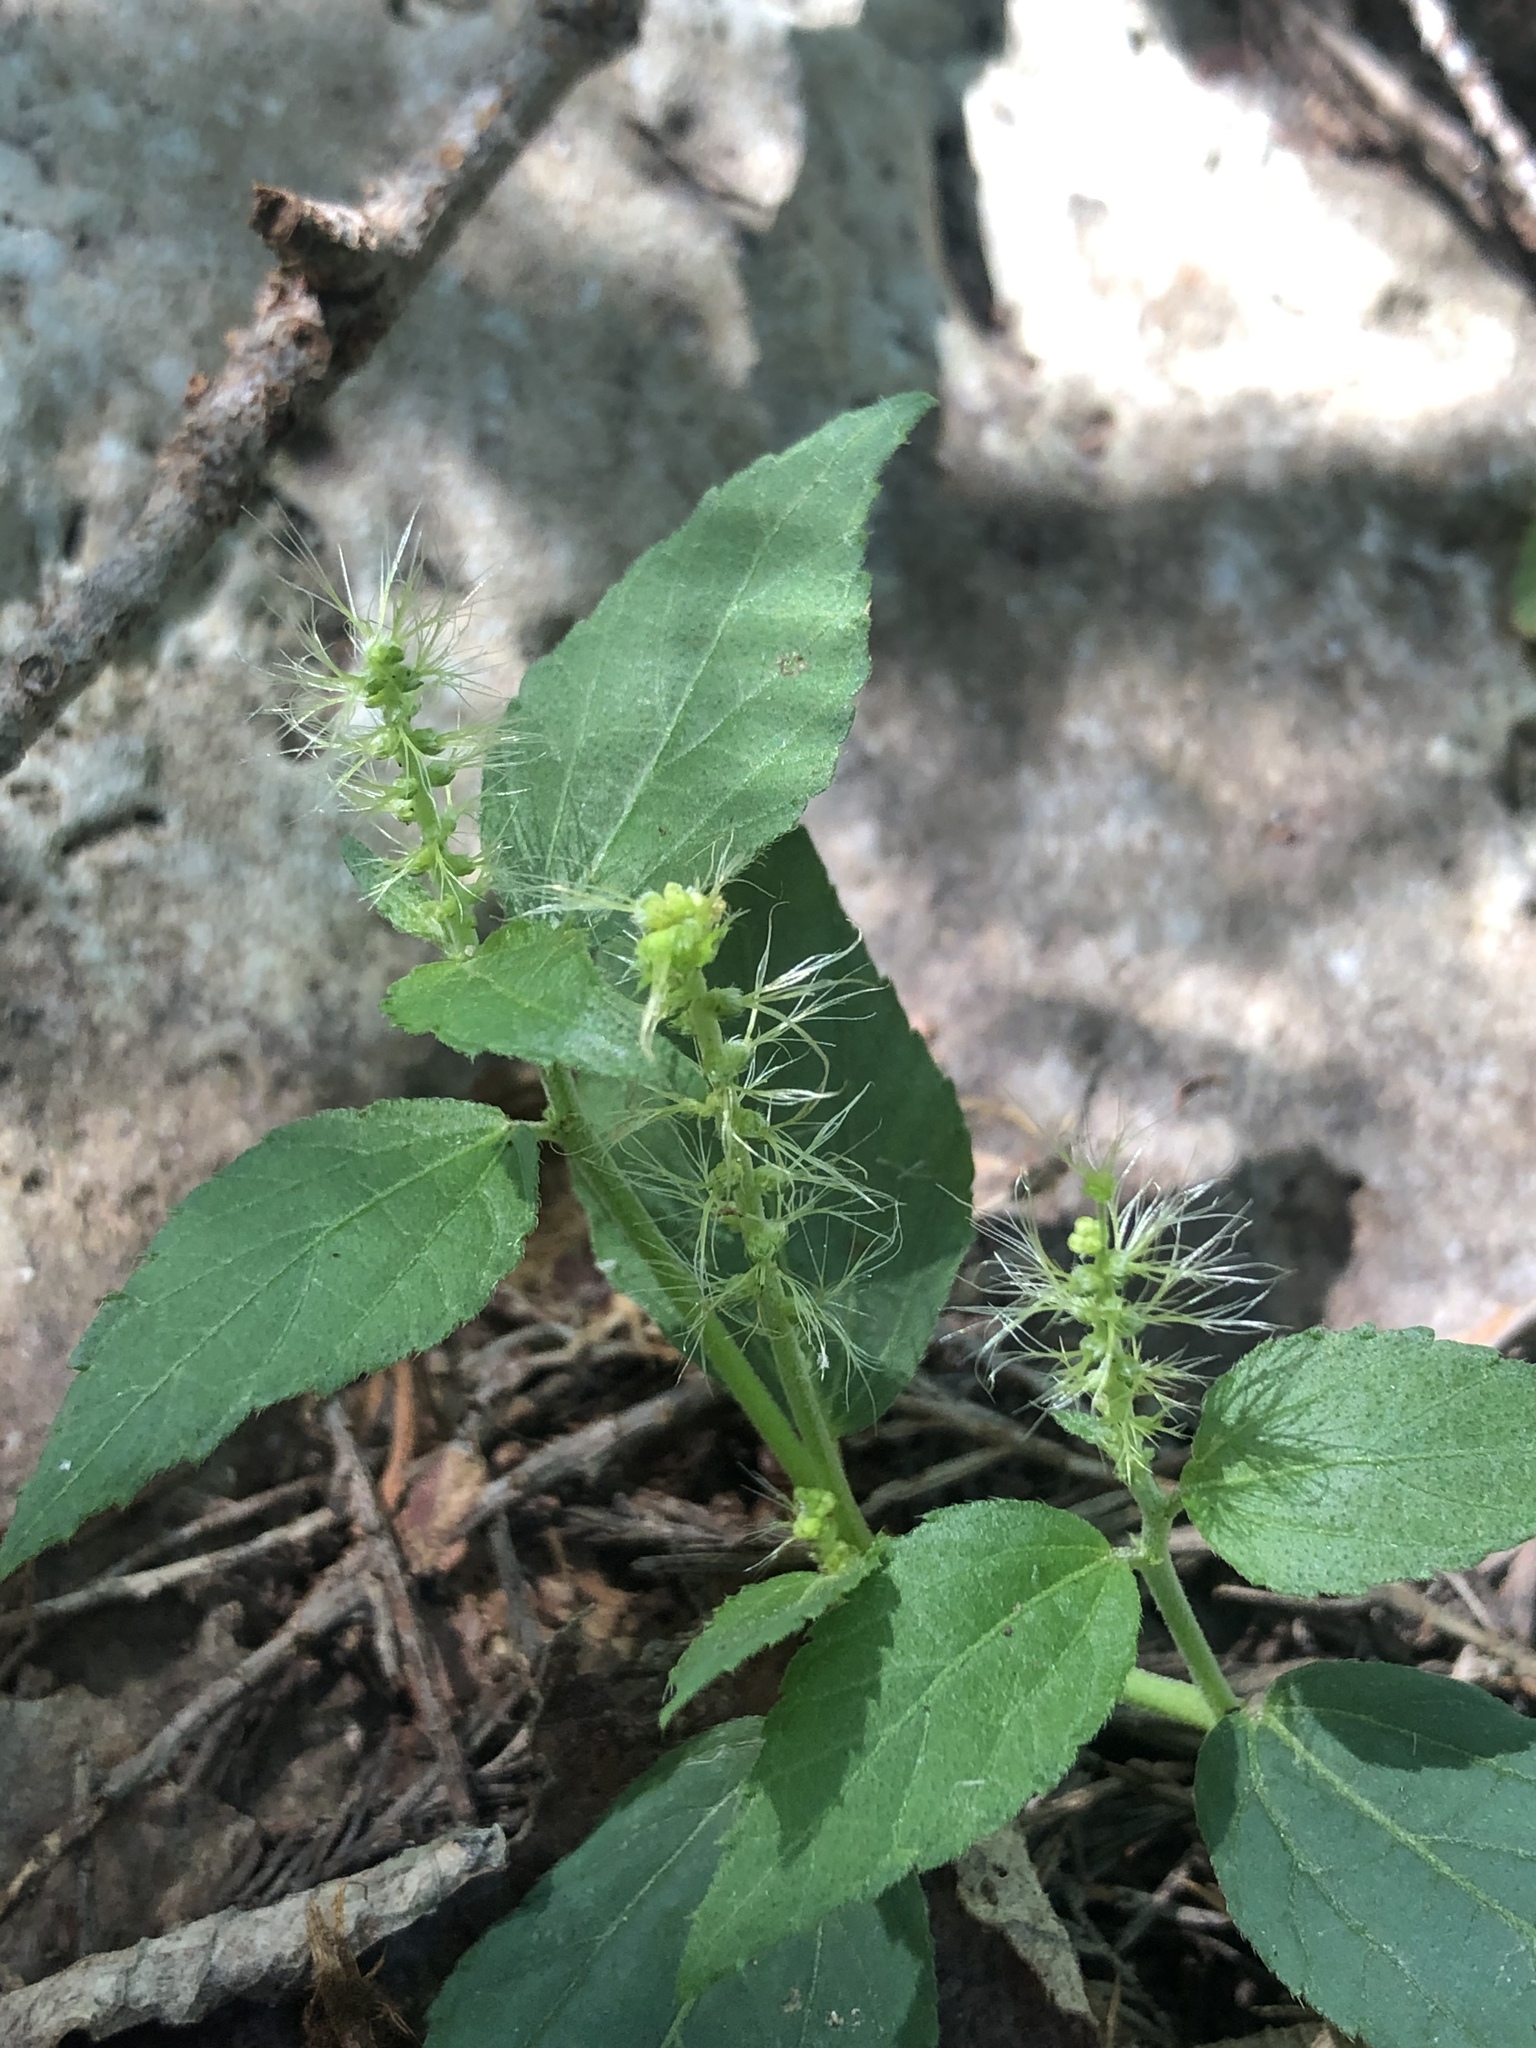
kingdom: Plantae
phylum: Tracheophyta
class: Magnoliopsida
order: Malpighiales
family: Euphorbiaceae
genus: Acalypha
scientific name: Acalypha phleoides
